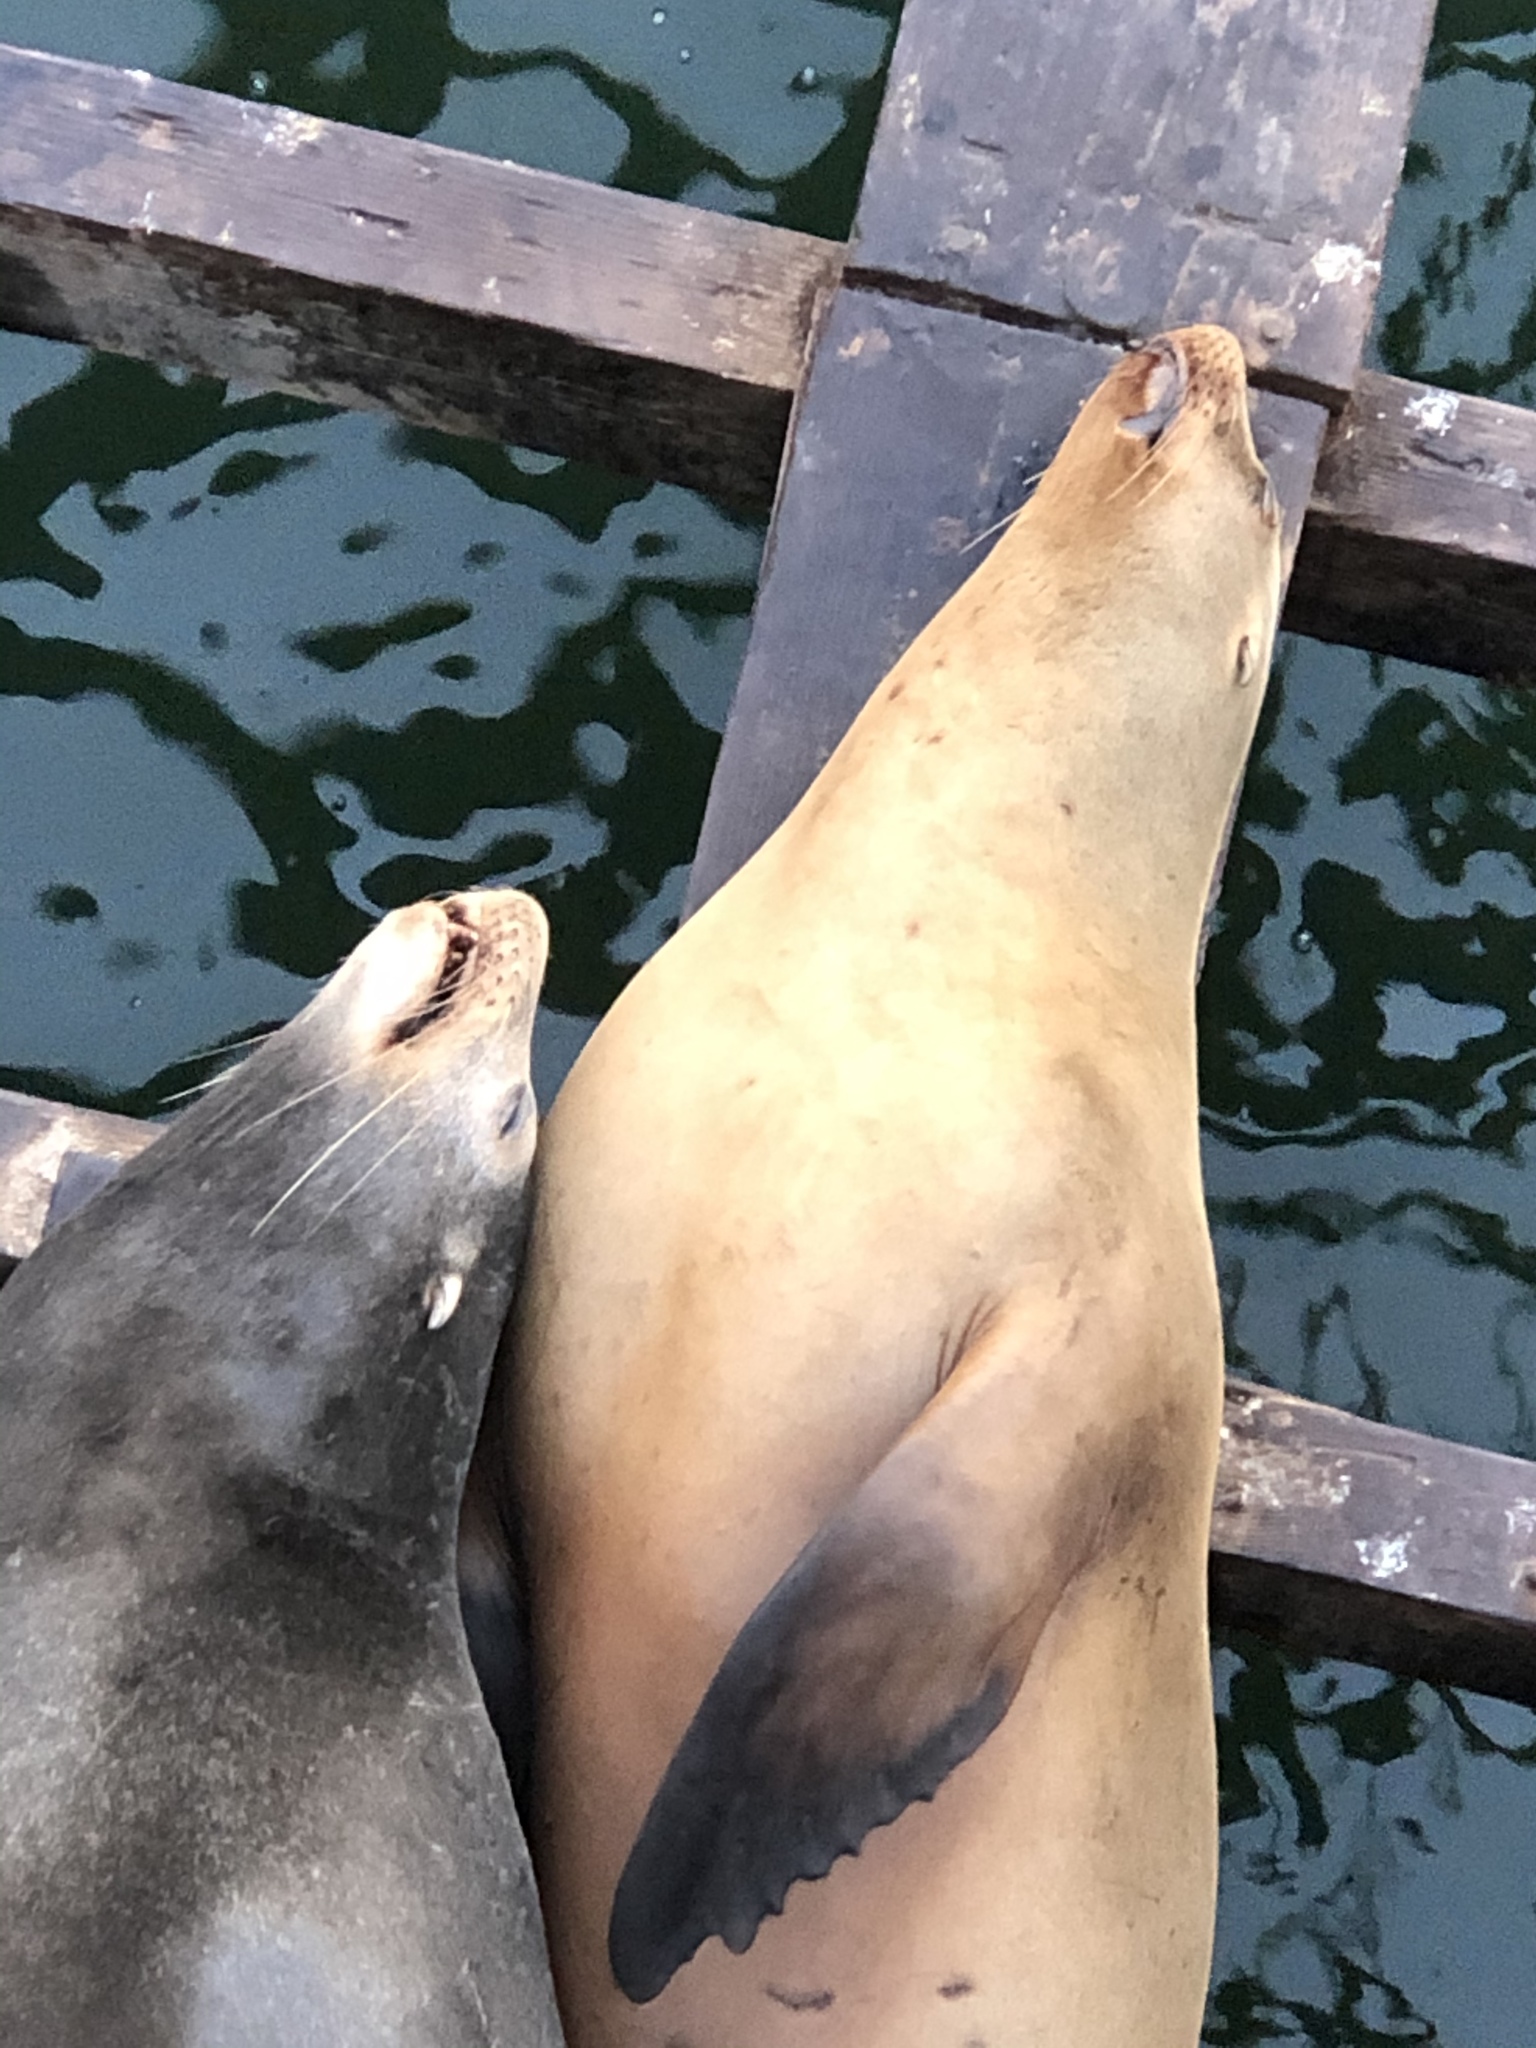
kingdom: Animalia
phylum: Chordata
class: Mammalia
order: Carnivora
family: Otariidae
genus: Zalophus
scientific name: Zalophus californianus
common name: California sea lion
